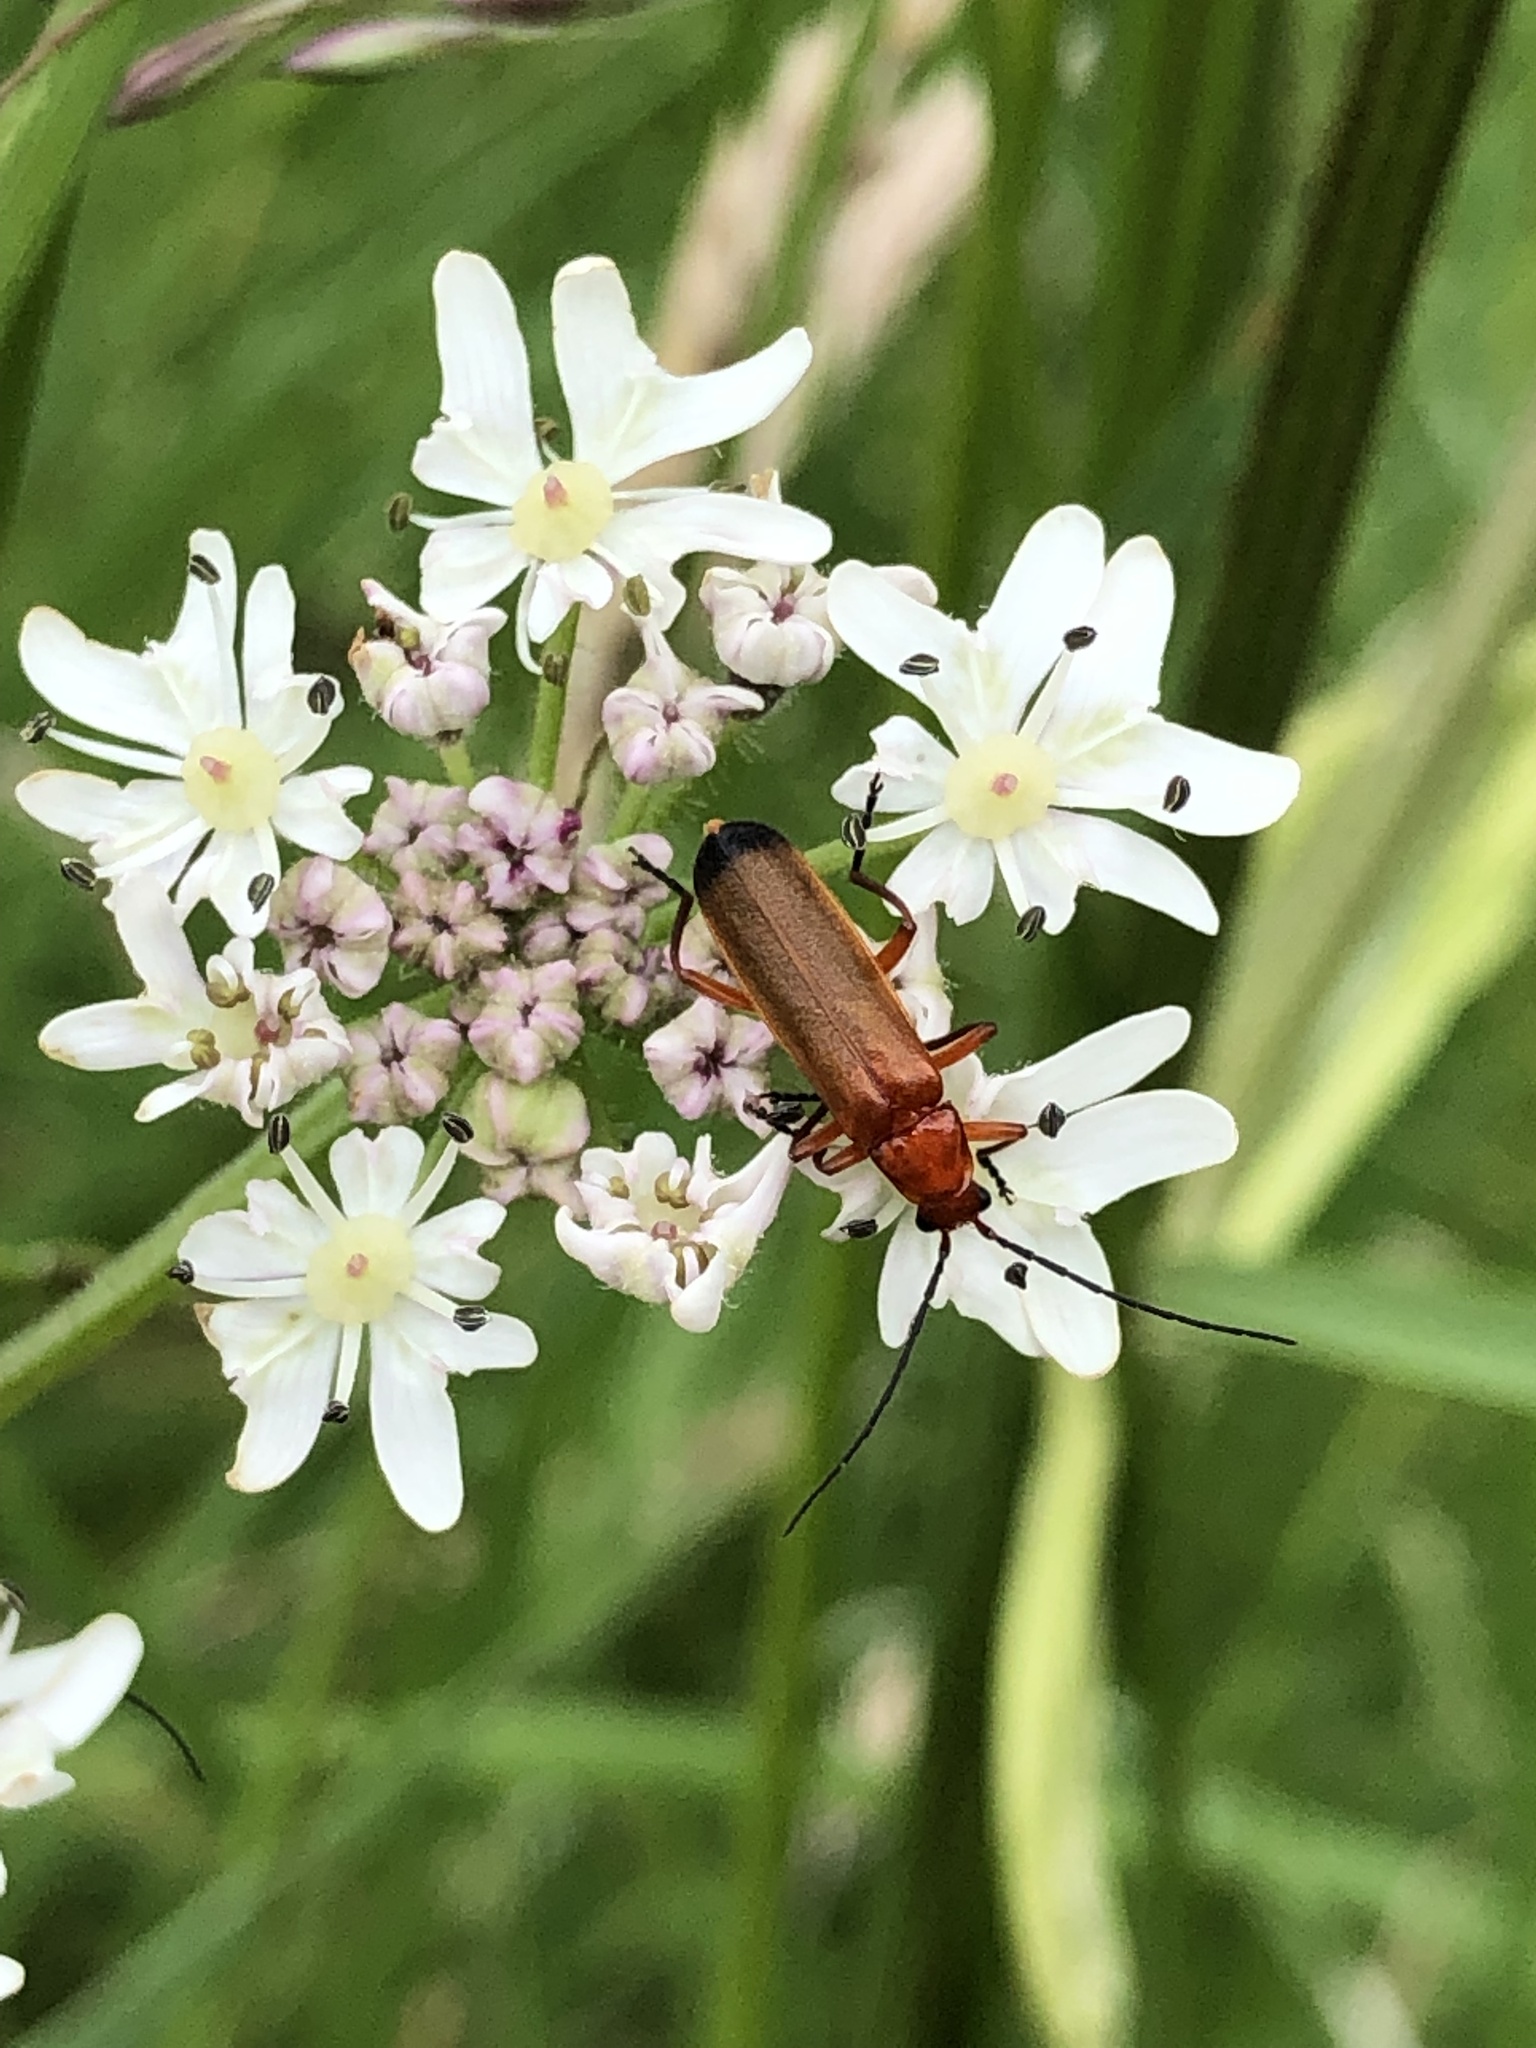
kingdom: Animalia
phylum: Arthropoda
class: Insecta
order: Coleoptera
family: Cantharidae
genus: Rhagonycha
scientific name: Rhagonycha fulva
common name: Common red soldier beetle
